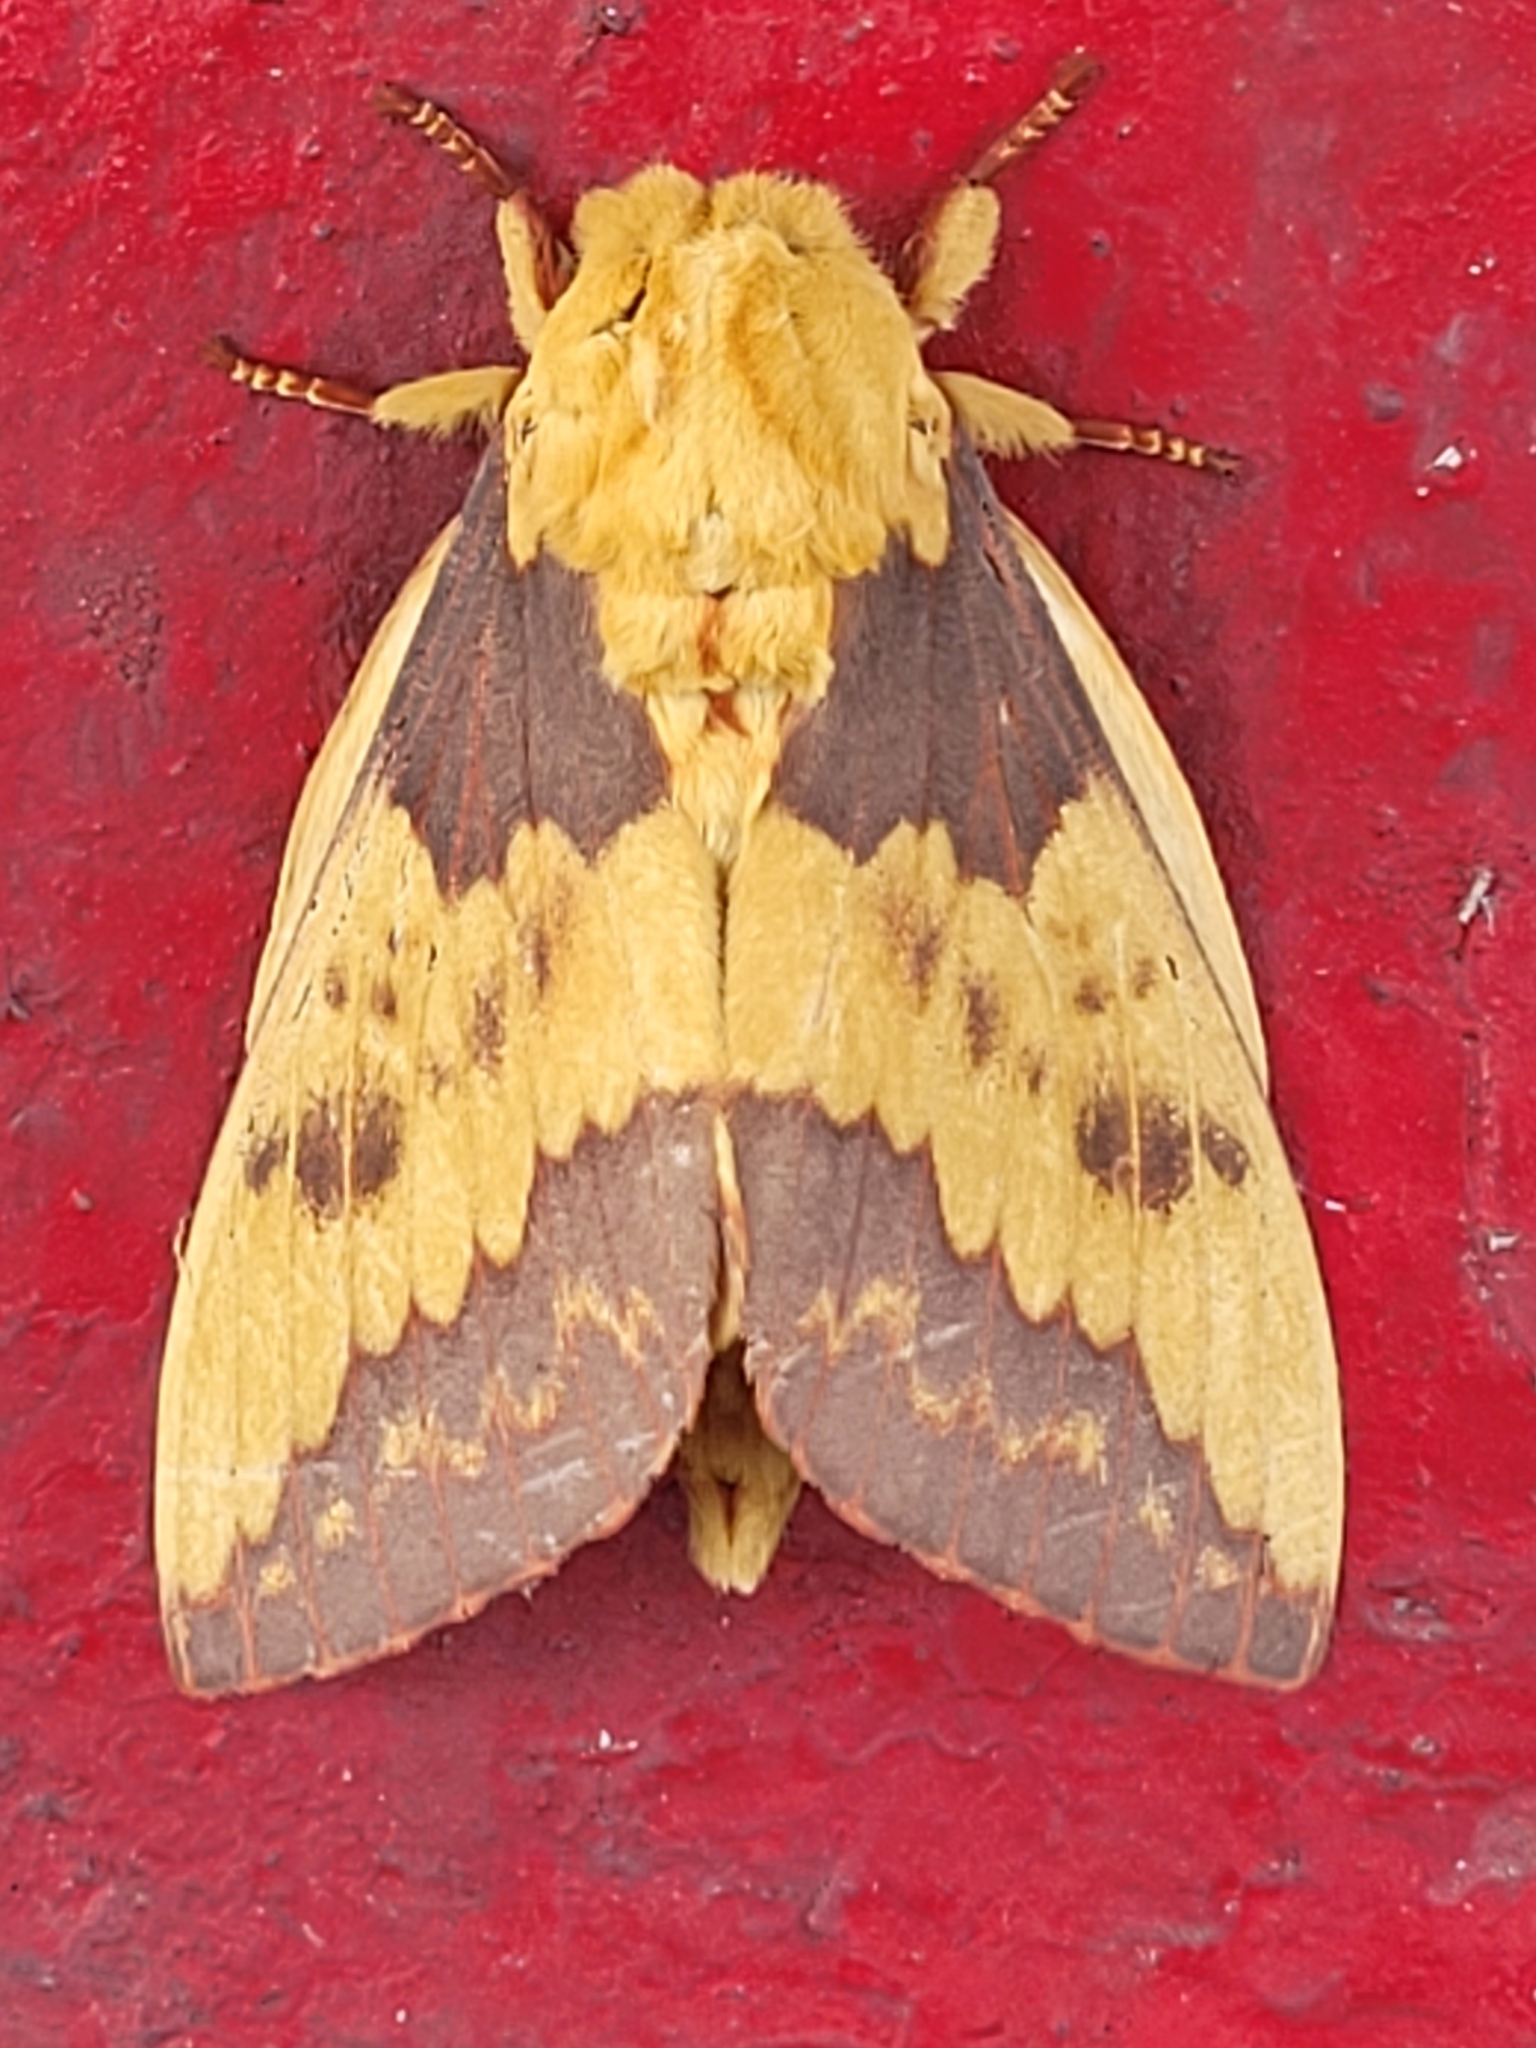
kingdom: Animalia
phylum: Arthropoda
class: Insecta
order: Lepidoptera
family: Saturniidae
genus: Citheronia
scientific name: Citheronia laocoon
